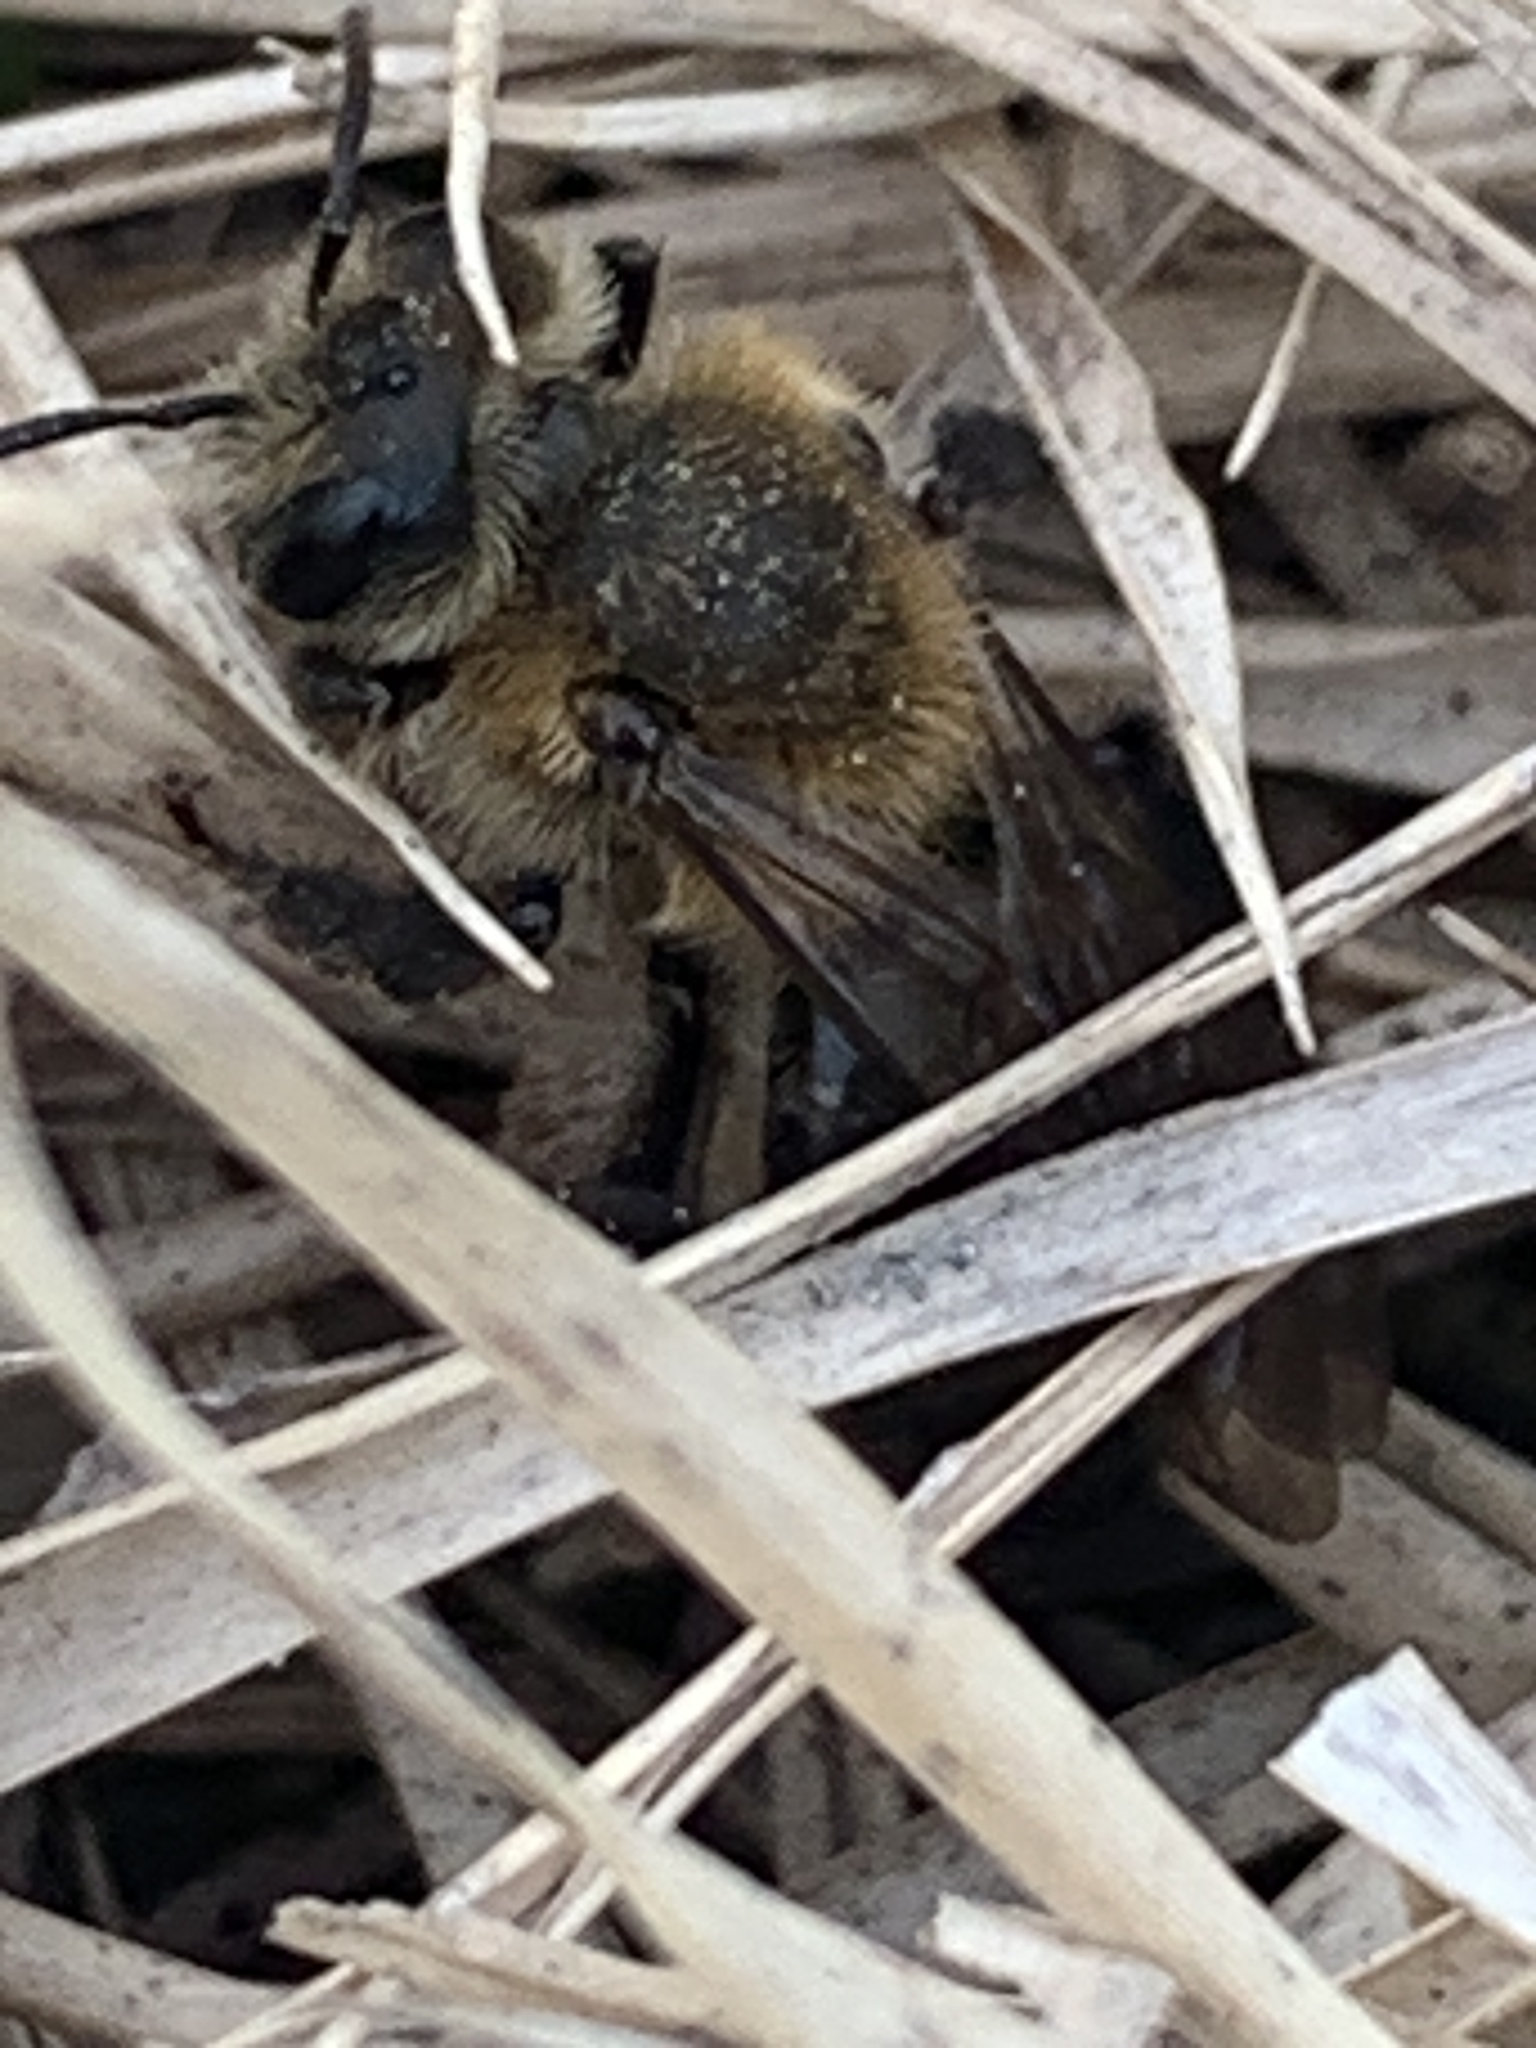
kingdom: Animalia
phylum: Arthropoda
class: Insecta
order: Hymenoptera
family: Andrenidae
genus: Andrena
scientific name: Andrena vicina
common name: Neighborly mining bee
